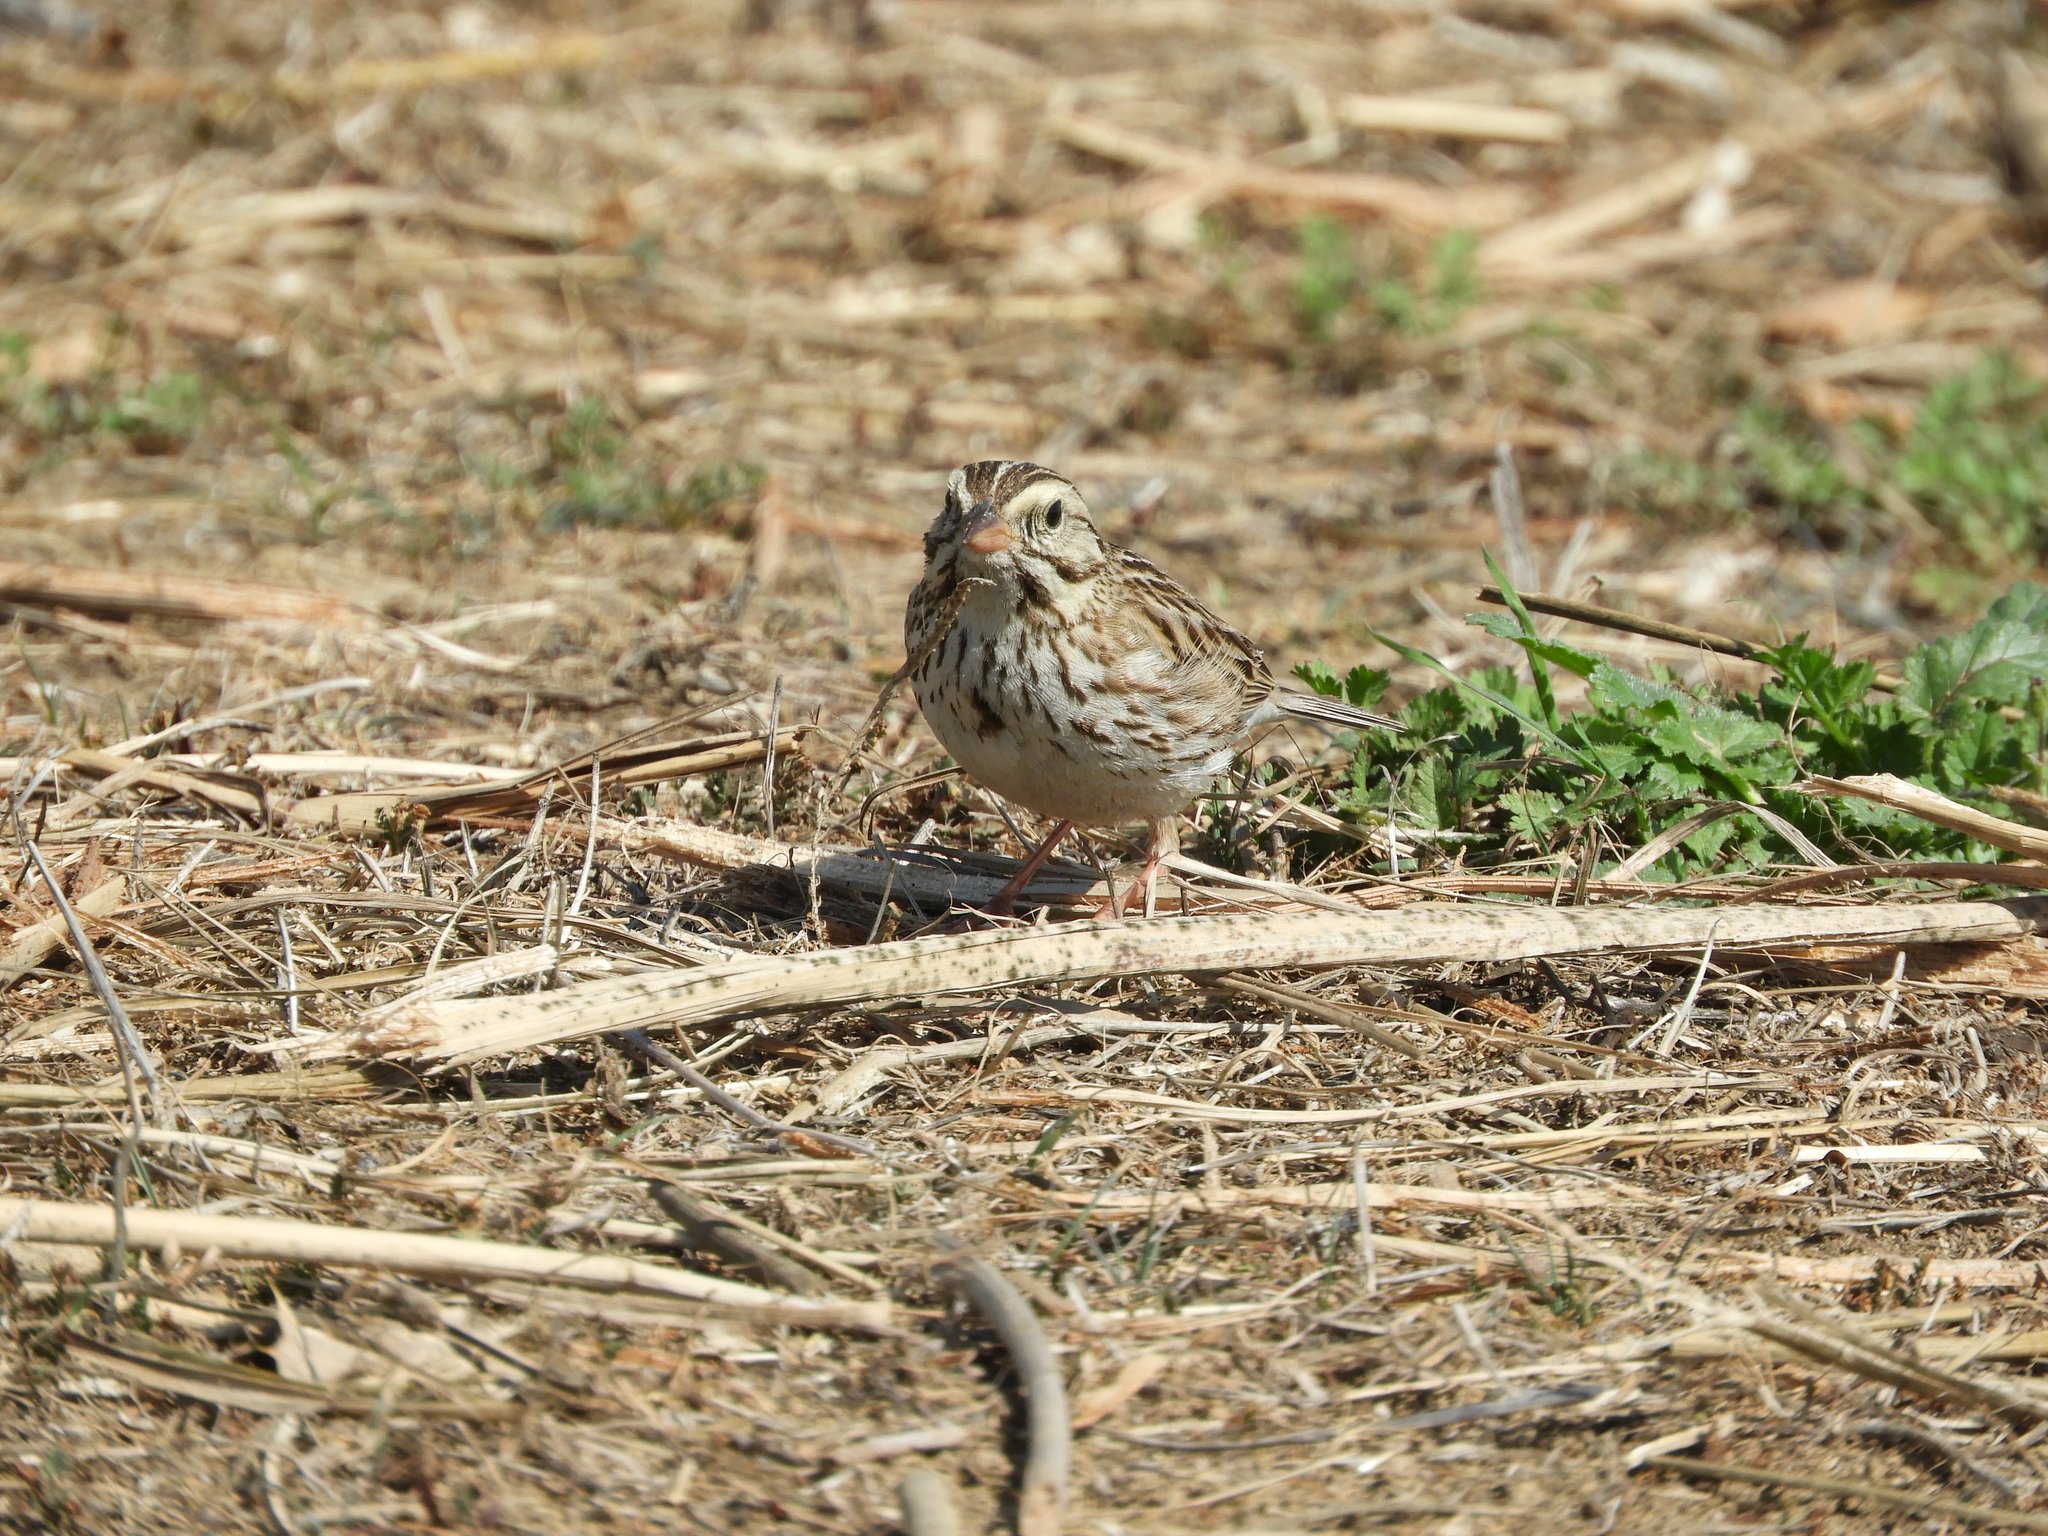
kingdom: Animalia
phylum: Chordata
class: Aves
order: Passeriformes
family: Passerellidae
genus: Passerculus
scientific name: Passerculus sandwichensis
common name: Savannah sparrow
